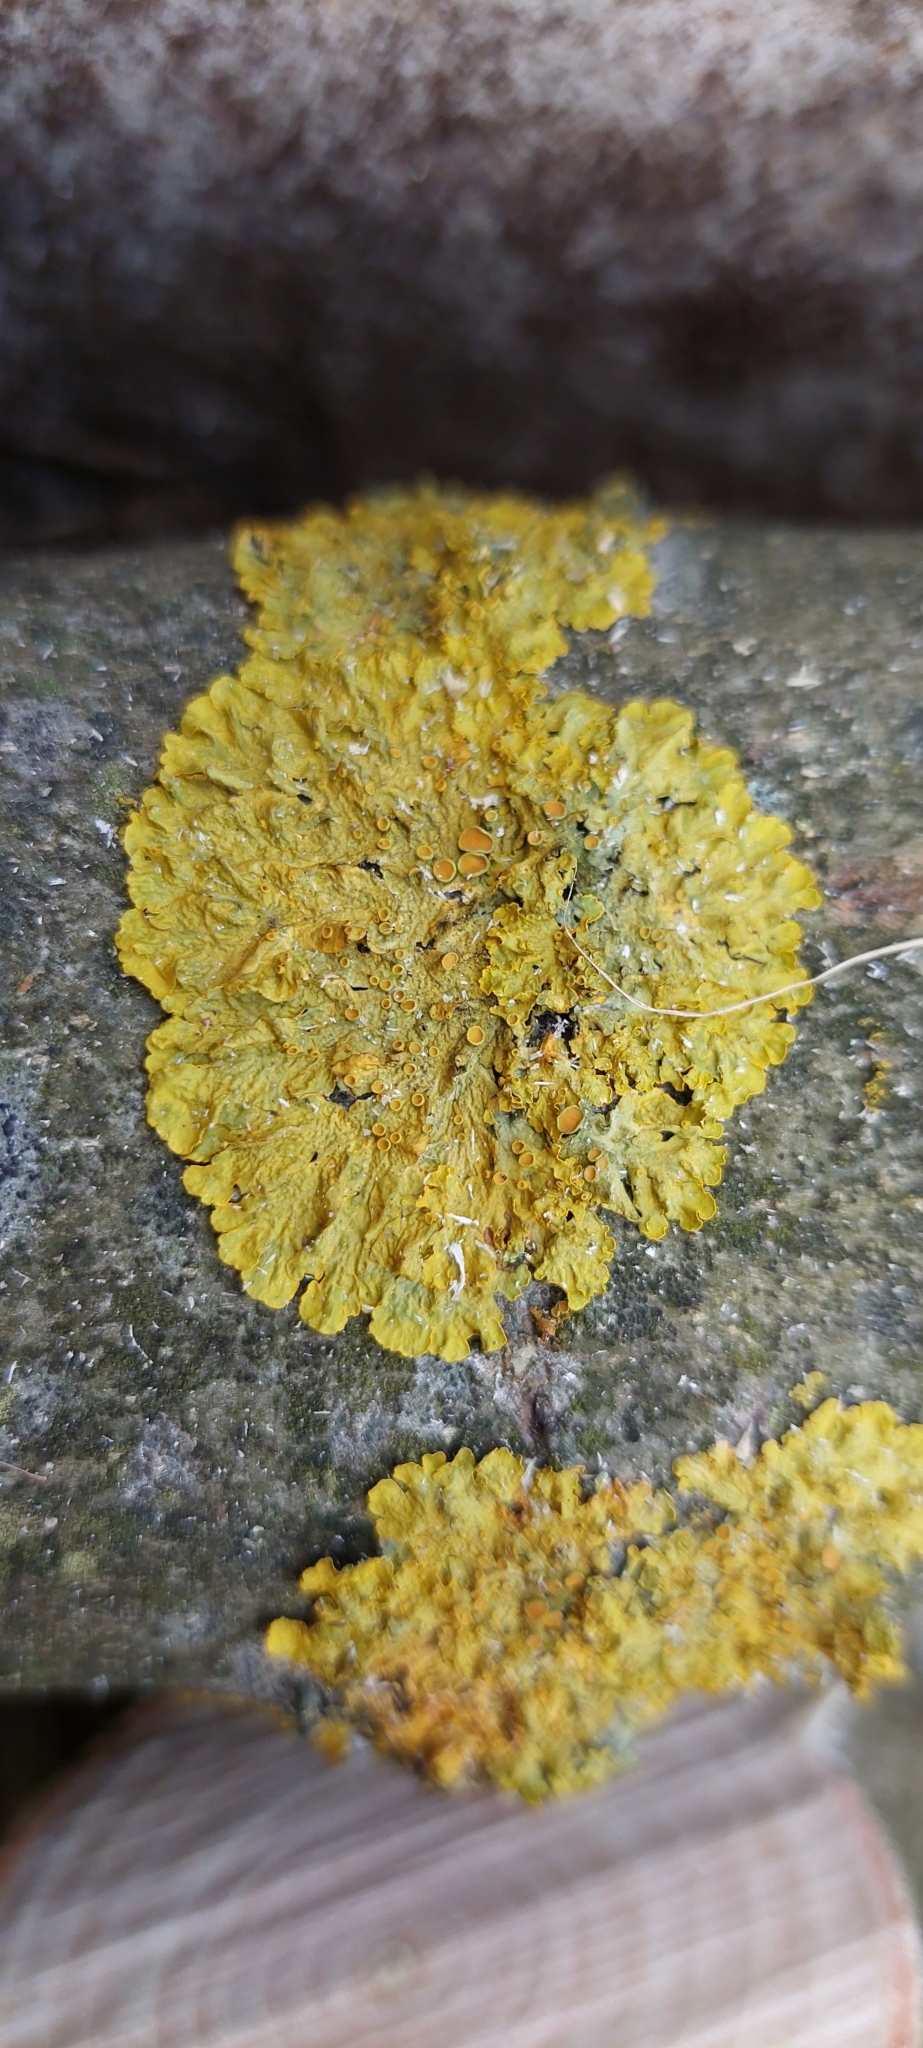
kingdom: Fungi
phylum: Ascomycota
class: Lecanoromycetes
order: Teloschistales
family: Teloschistaceae
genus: Xanthoria
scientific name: Xanthoria parietina
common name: Common orange lichen
